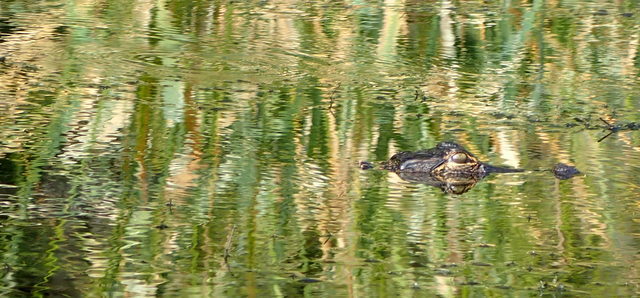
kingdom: Animalia
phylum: Chordata
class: Crocodylia
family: Alligatoridae
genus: Alligator
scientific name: Alligator mississippiensis
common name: American alligator
